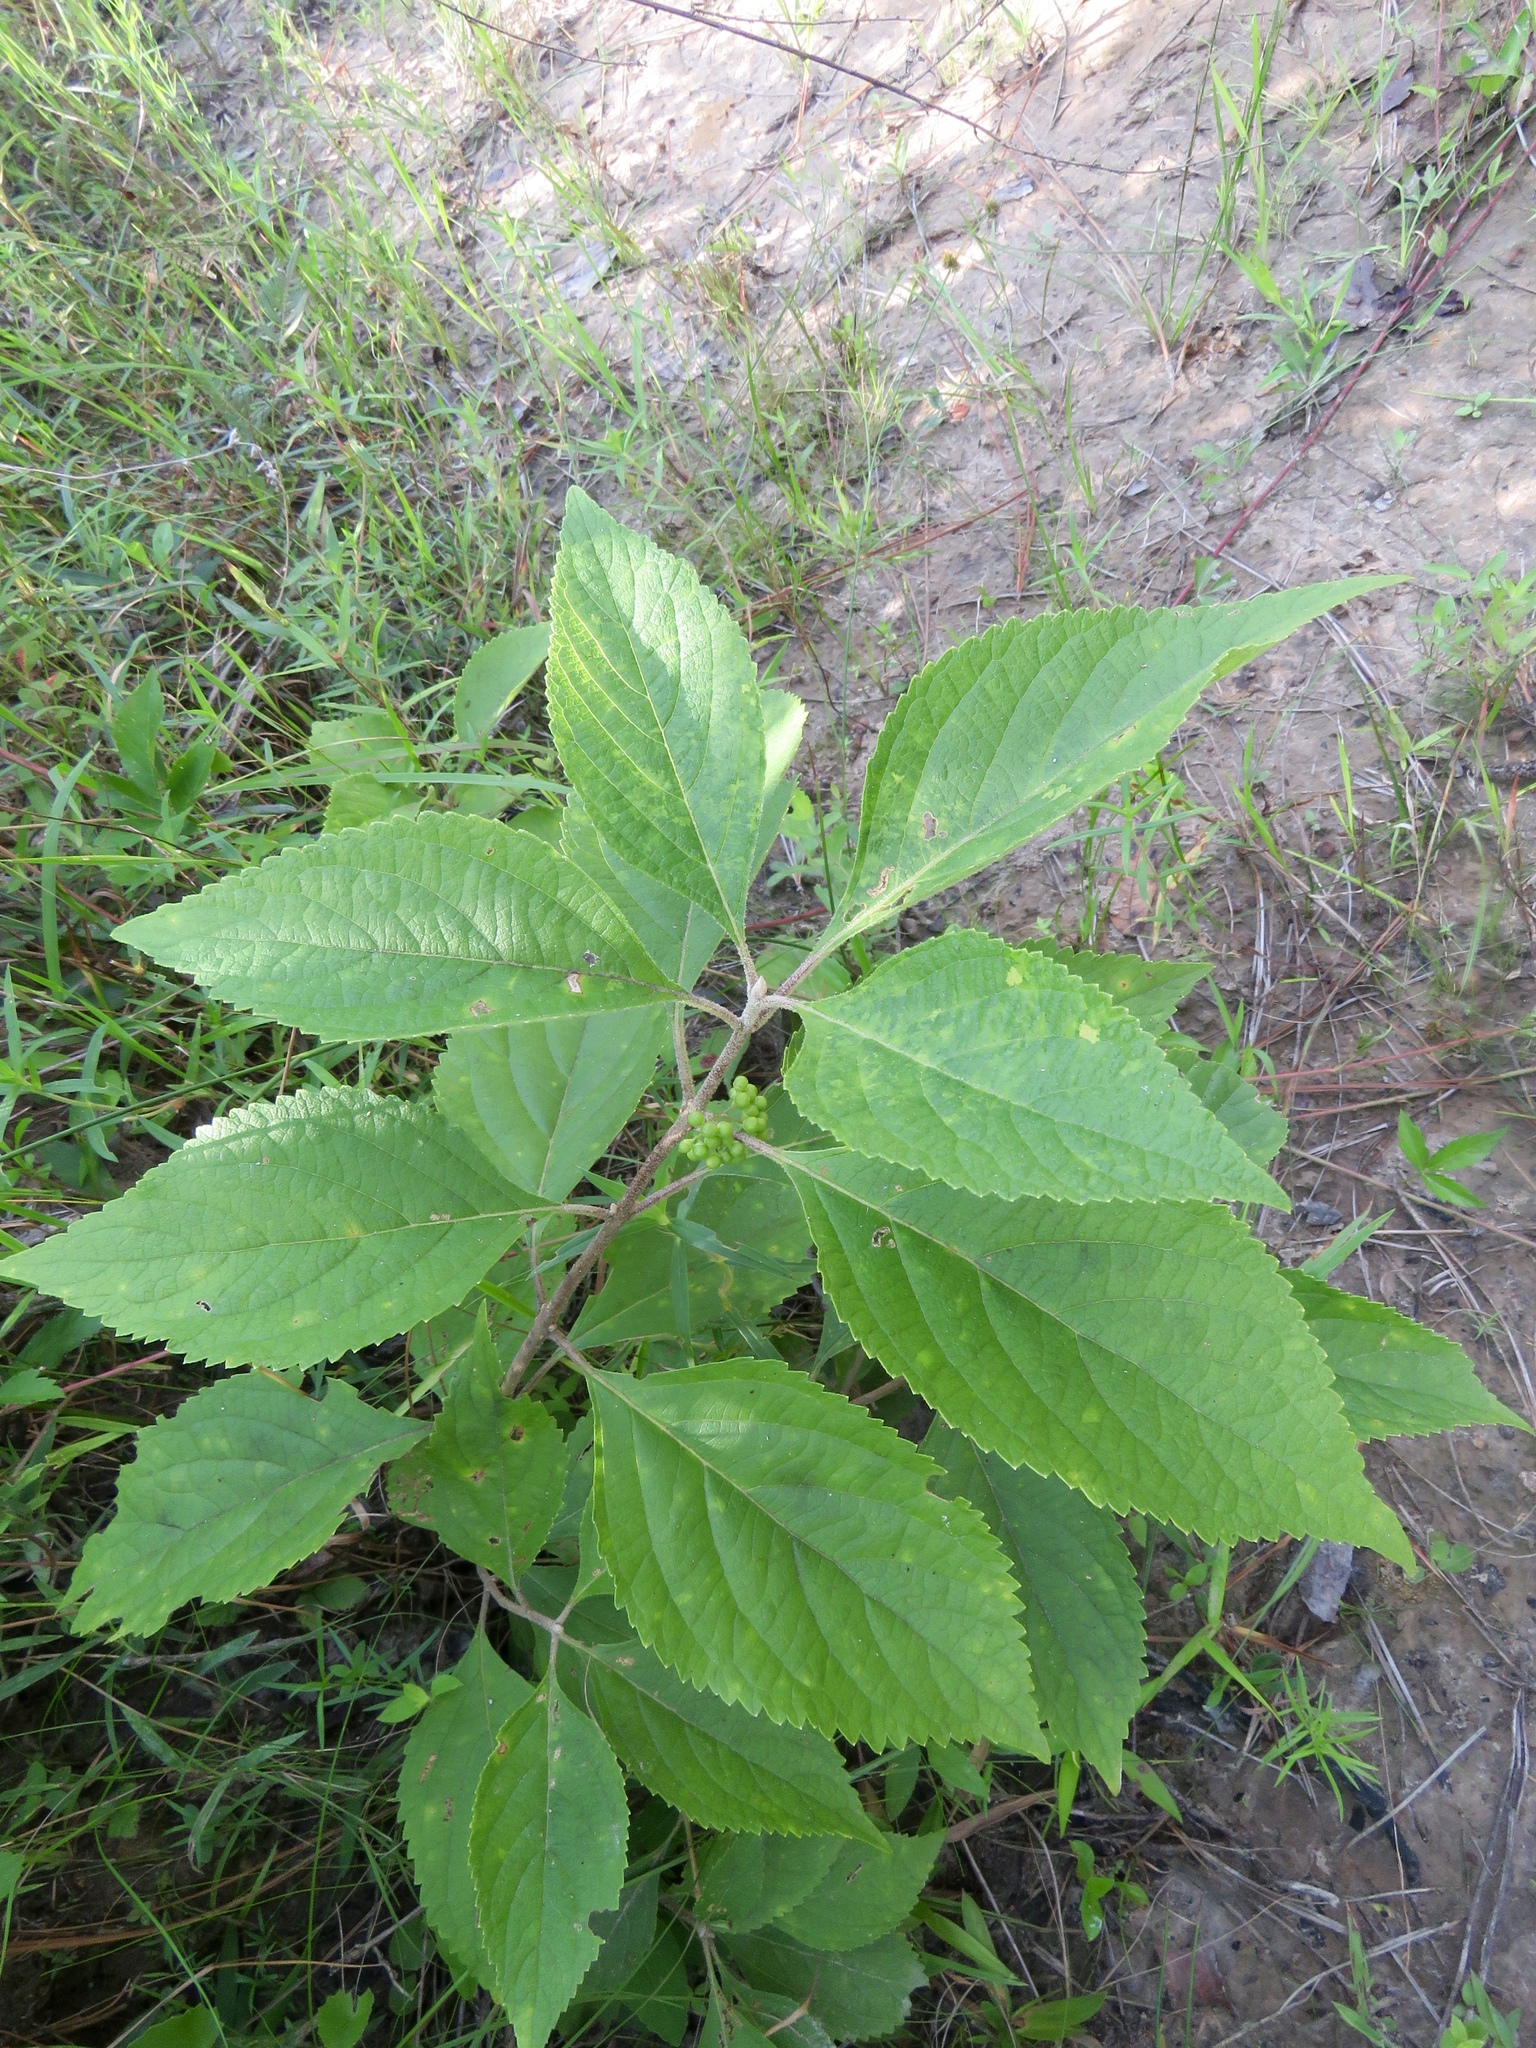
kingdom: Plantae
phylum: Tracheophyta
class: Magnoliopsida
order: Lamiales
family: Lamiaceae
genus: Callicarpa
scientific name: Callicarpa americana
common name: American beautyberry
